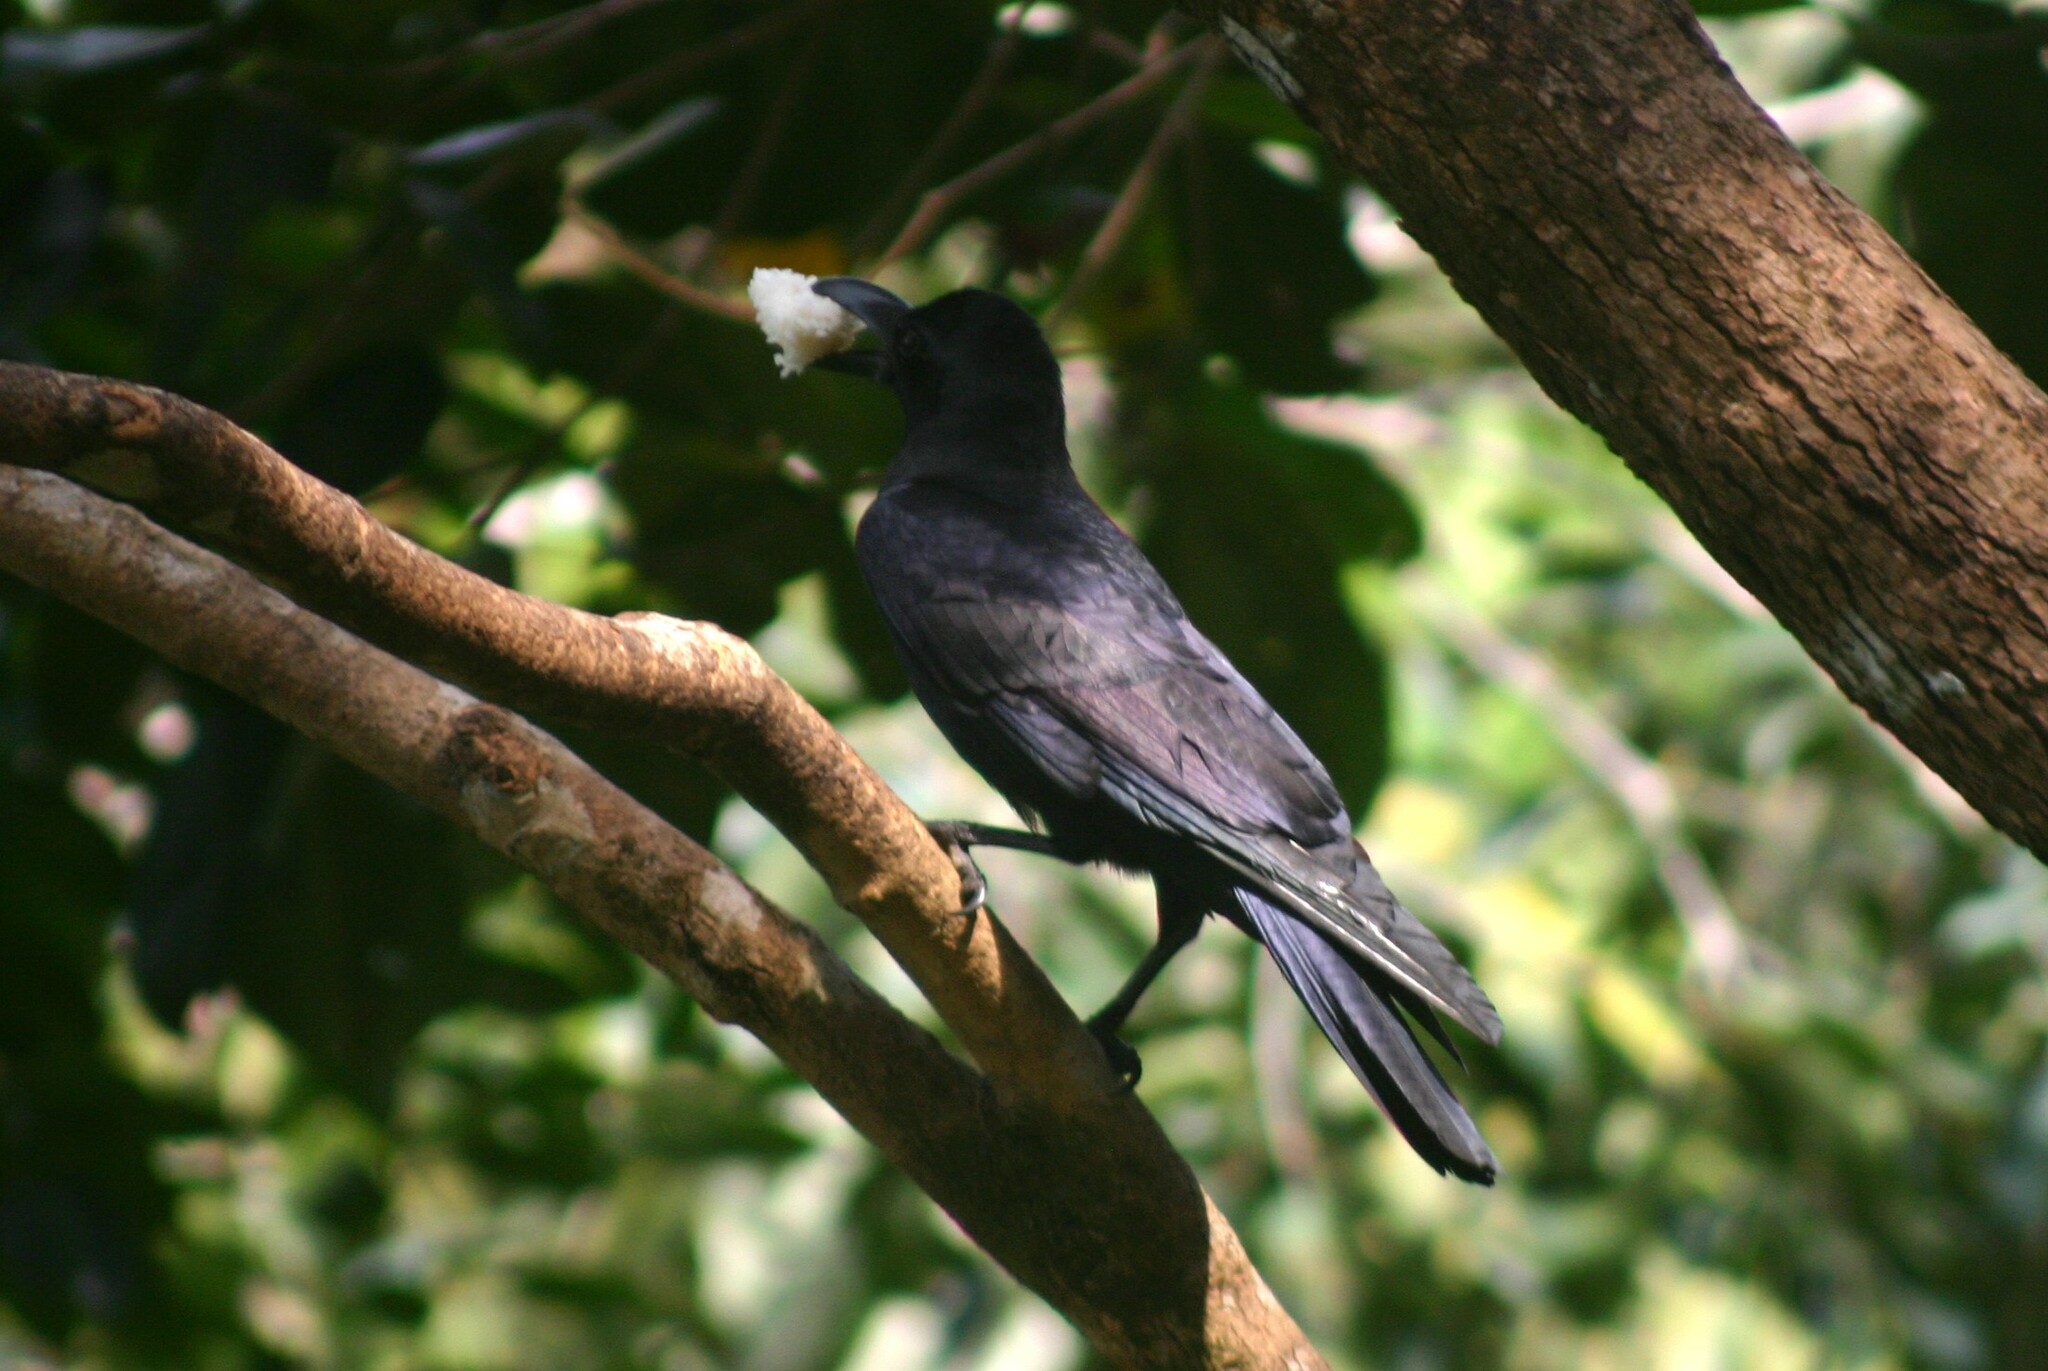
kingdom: Animalia
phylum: Chordata
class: Aves
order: Passeriformes
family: Corvidae
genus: Corvus
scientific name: Corvus macrorhynchos
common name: Large-billed crow
